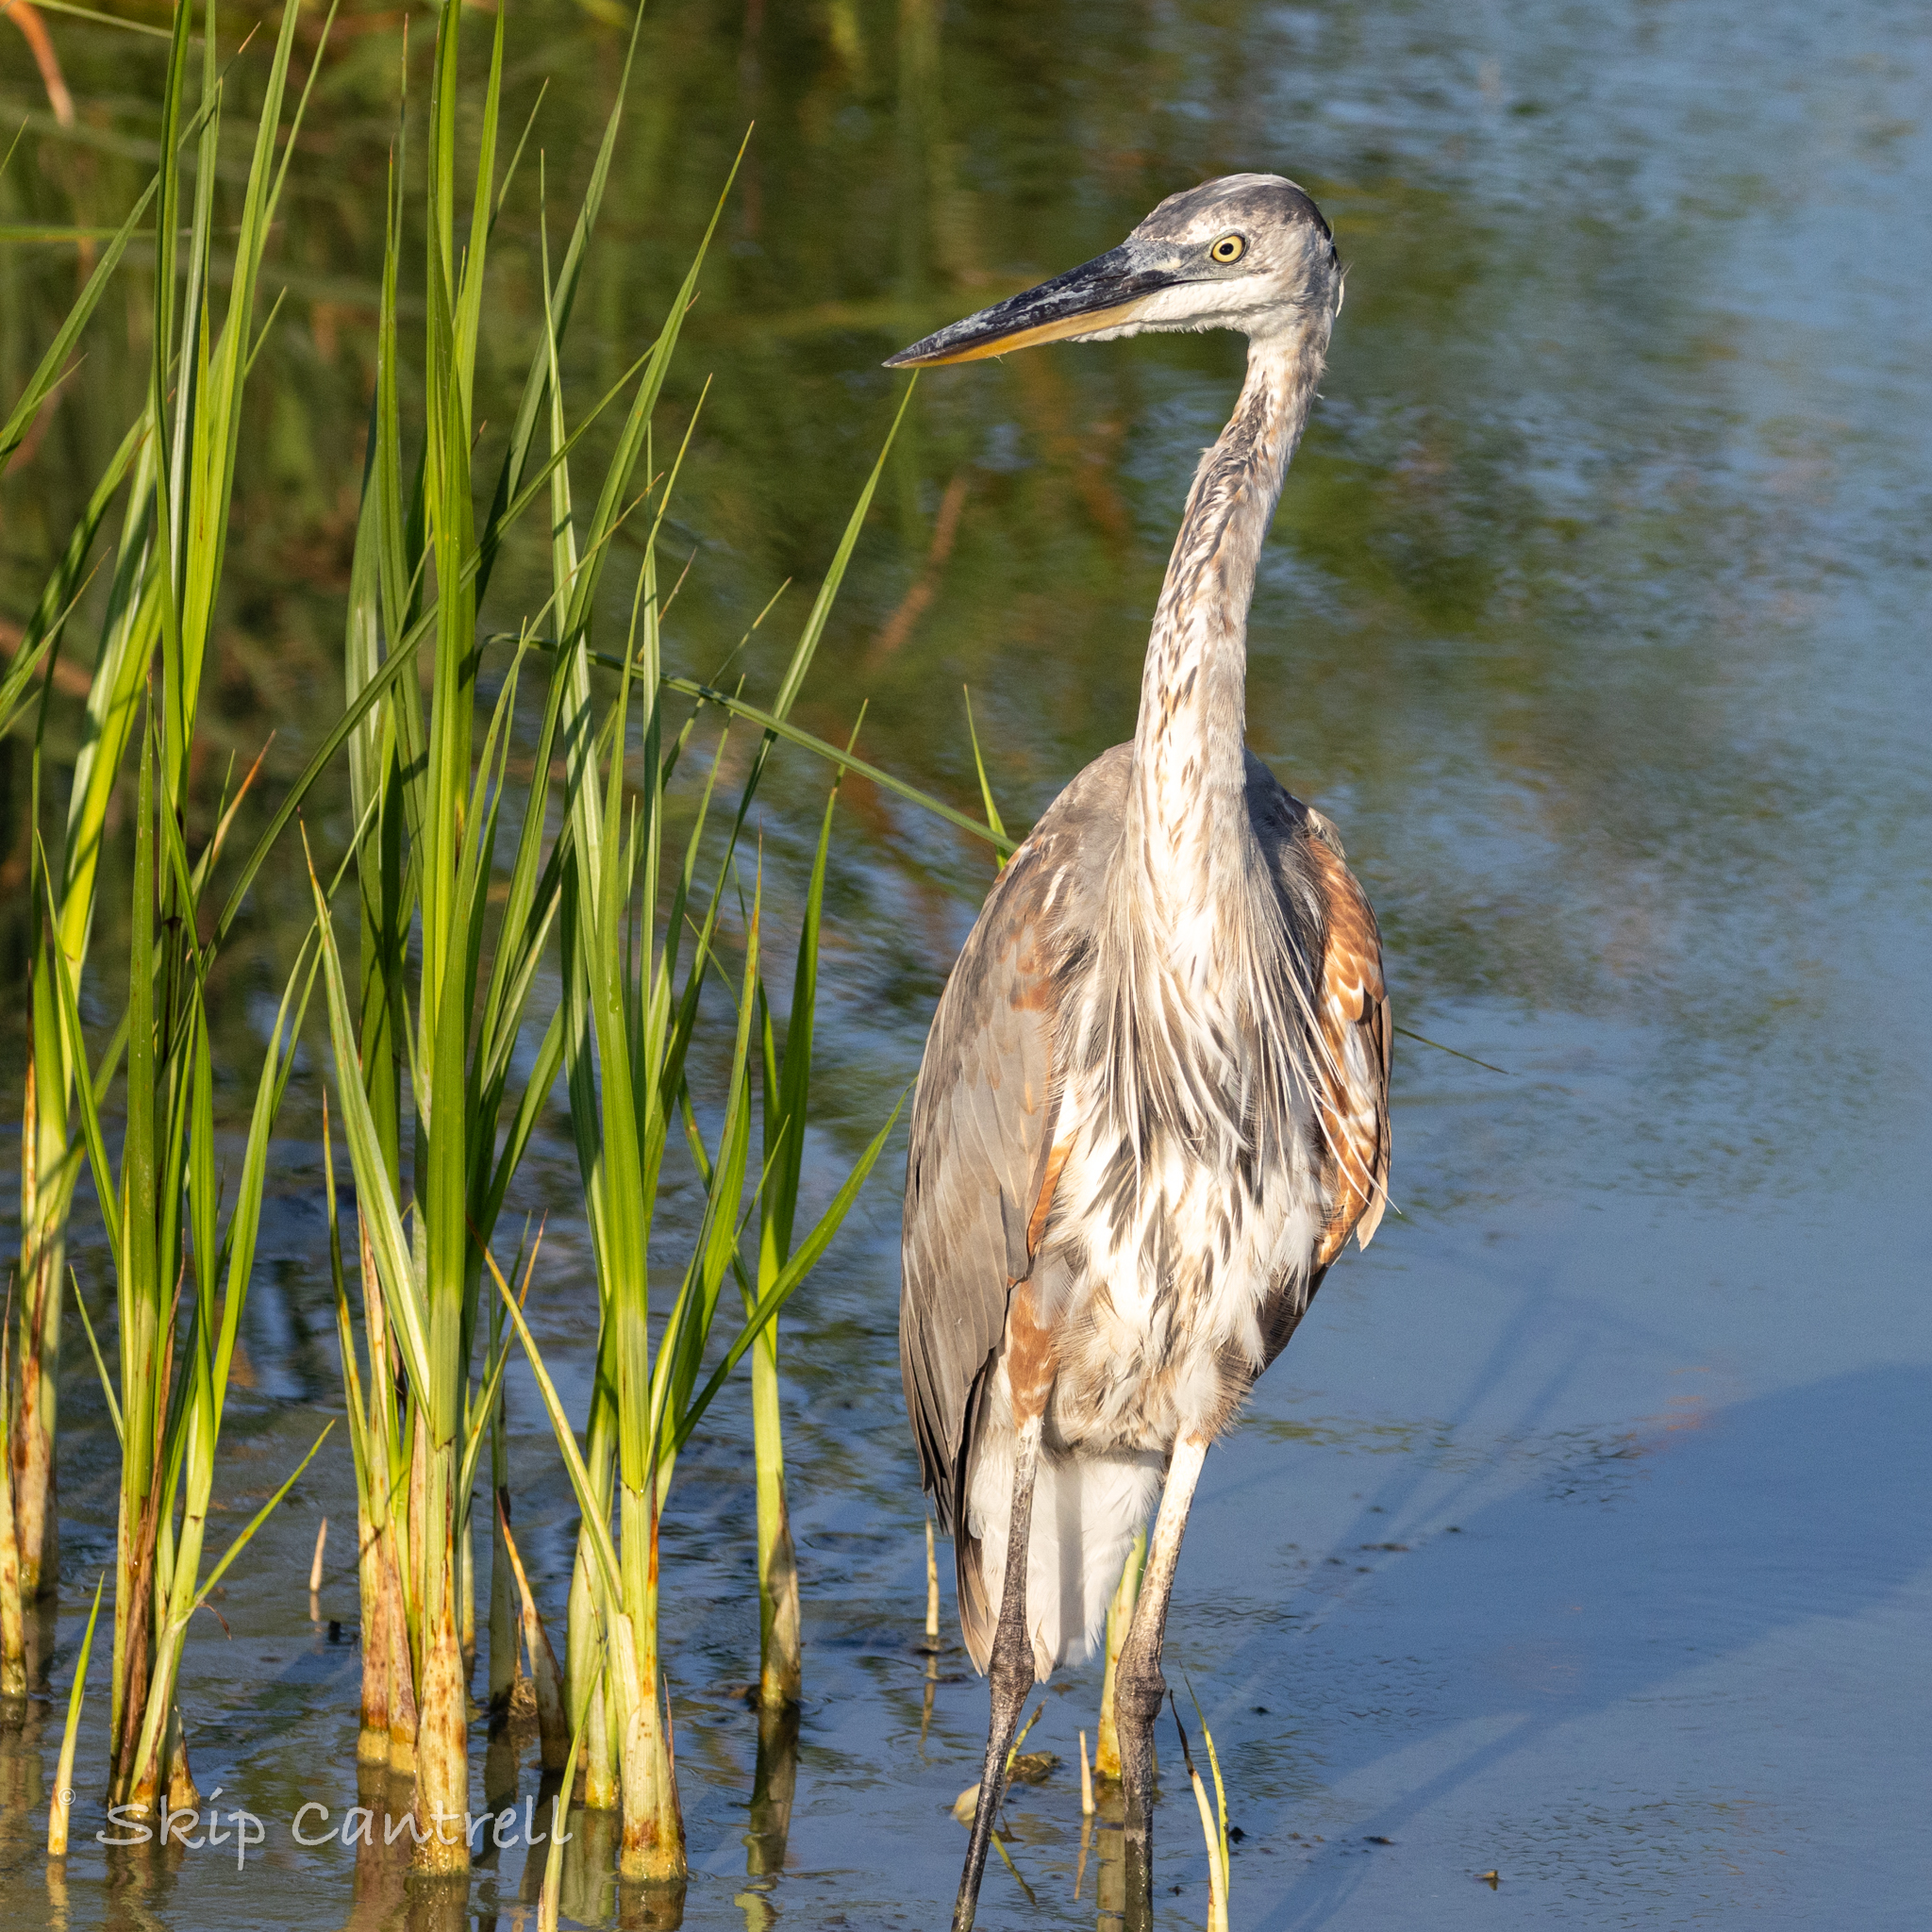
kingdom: Animalia
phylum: Chordata
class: Aves
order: Pelecaniformes
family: Ardeidae
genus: Ardea
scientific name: Ardea herodias
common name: Great blue heron
